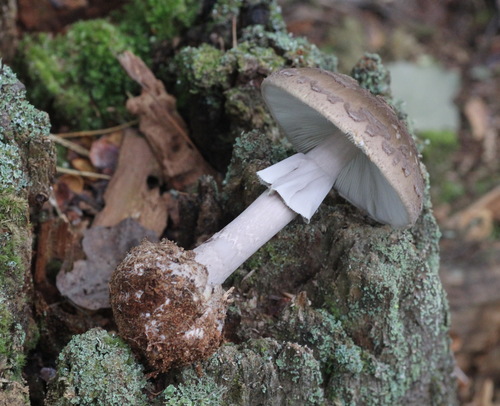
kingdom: Fungi
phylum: Basidiomycota
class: Agaricomycetes
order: Agaricales
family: Amanitaceae
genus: Amanita
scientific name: Amanita porphyria
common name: Grey veiled amanita
